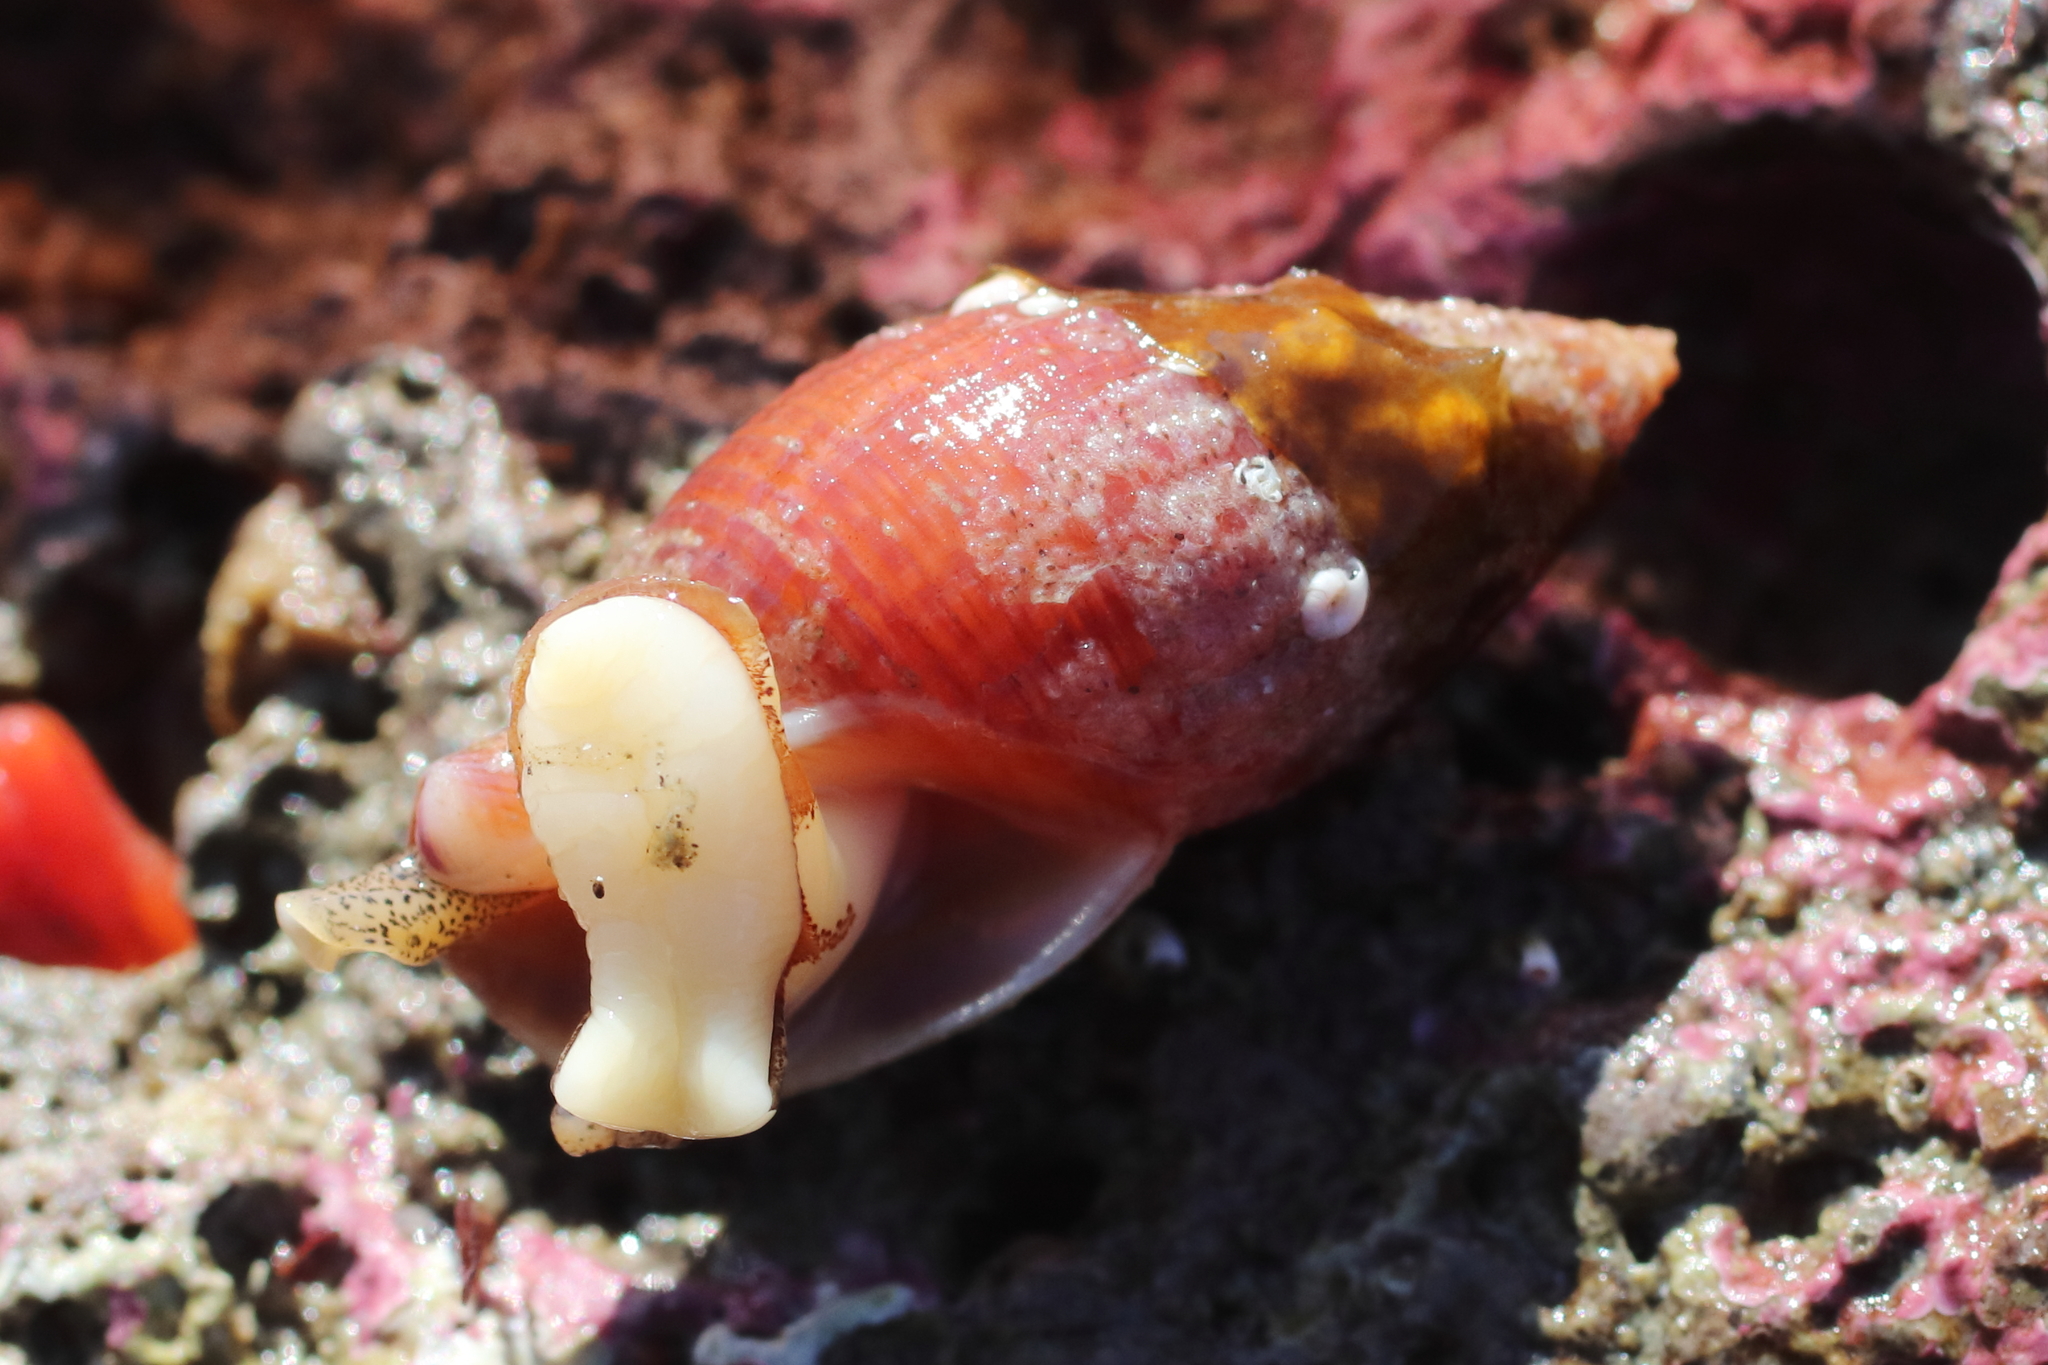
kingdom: Animalia
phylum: Mollusca
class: Gastropoda
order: Neogastropoda
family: Columbellidae
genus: Amphissa
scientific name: Amphissa columbiana
